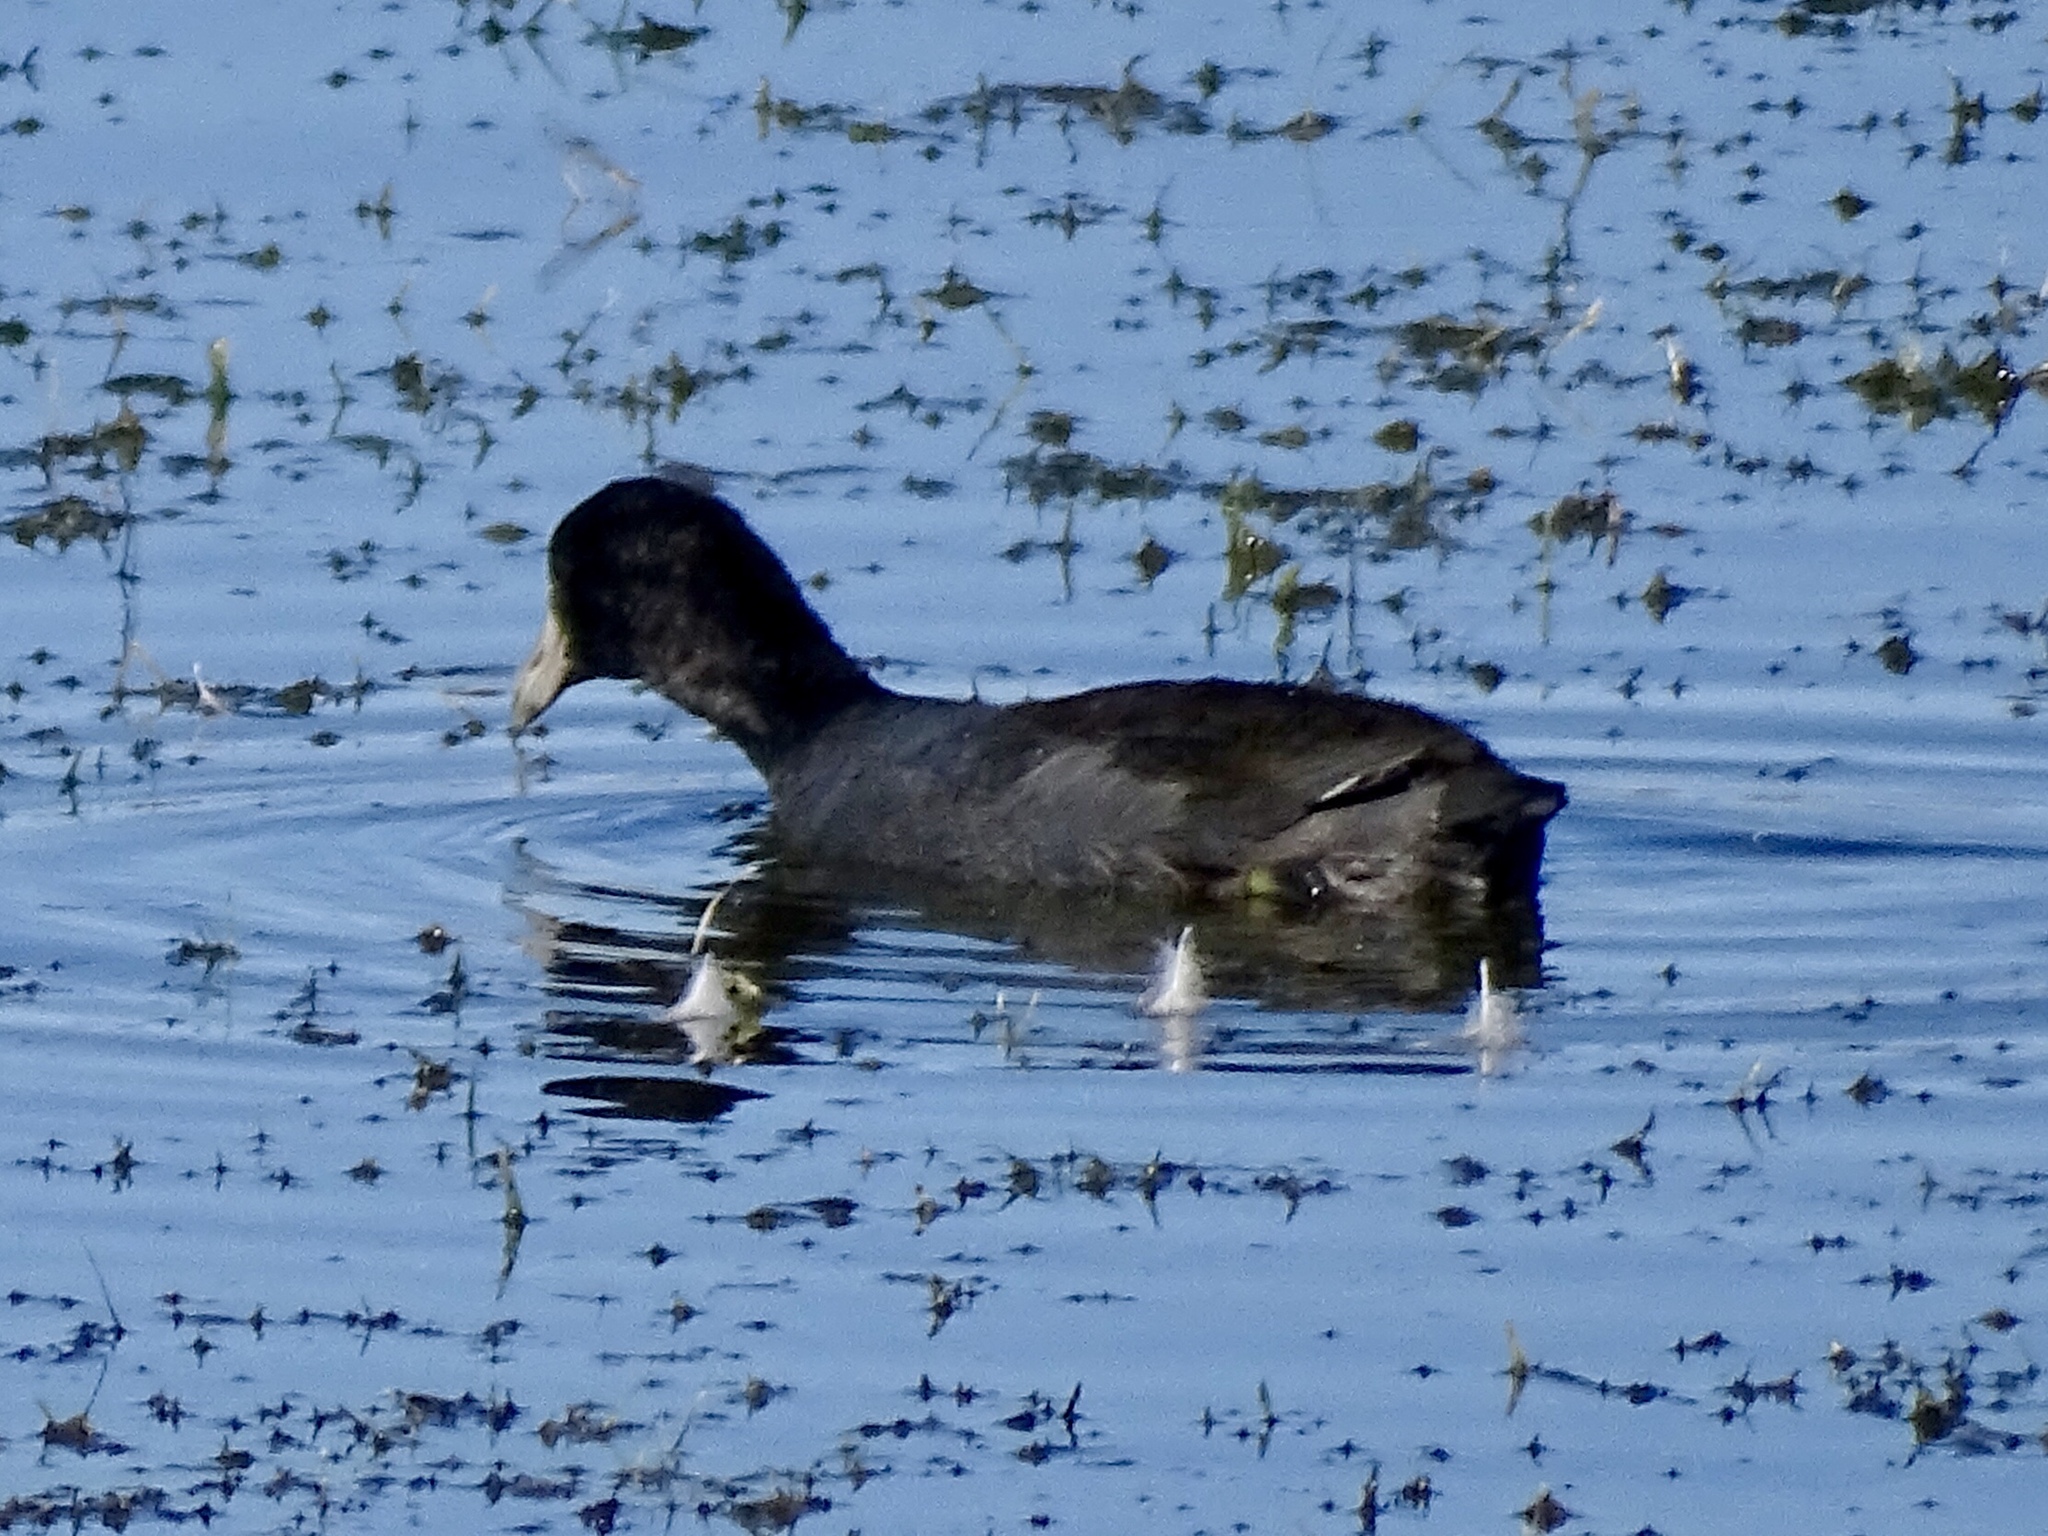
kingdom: Animalia
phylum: Chordata
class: Aves
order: Gruiformes
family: Rallidae
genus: Fulica
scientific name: Fulica americana
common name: American coot
